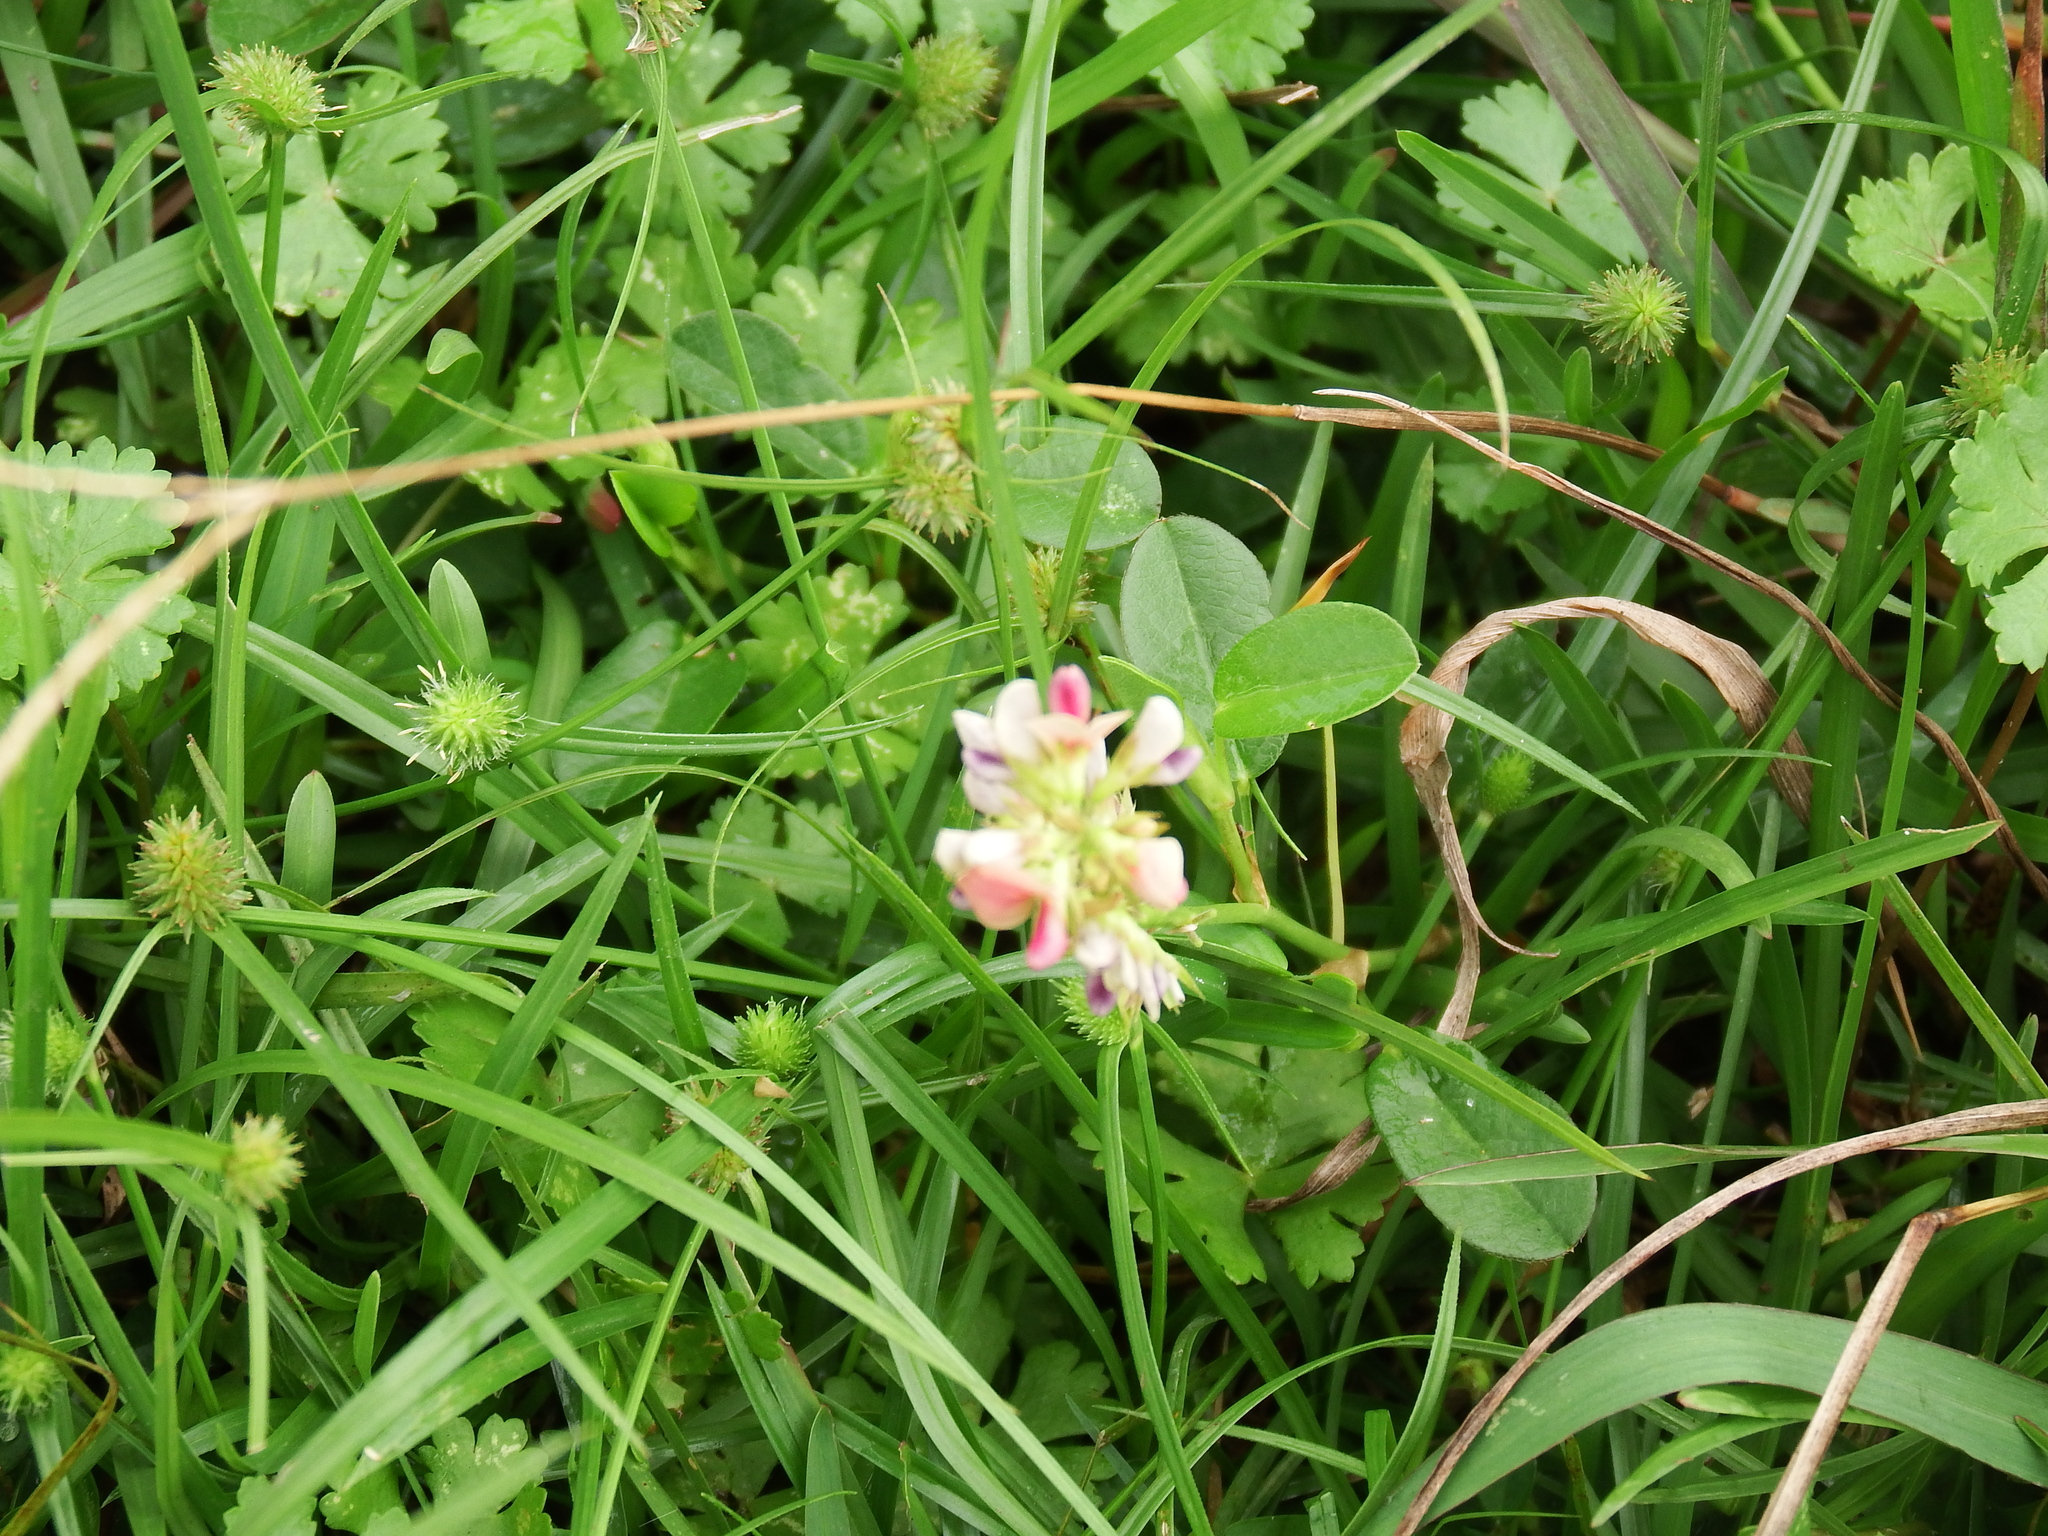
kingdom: Plantae
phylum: Tracheophyta
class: Magnoliopsida
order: Fabales
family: Fabaceae
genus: Alysicarpus
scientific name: Alysicarpus vaginalis
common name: White moneywort
